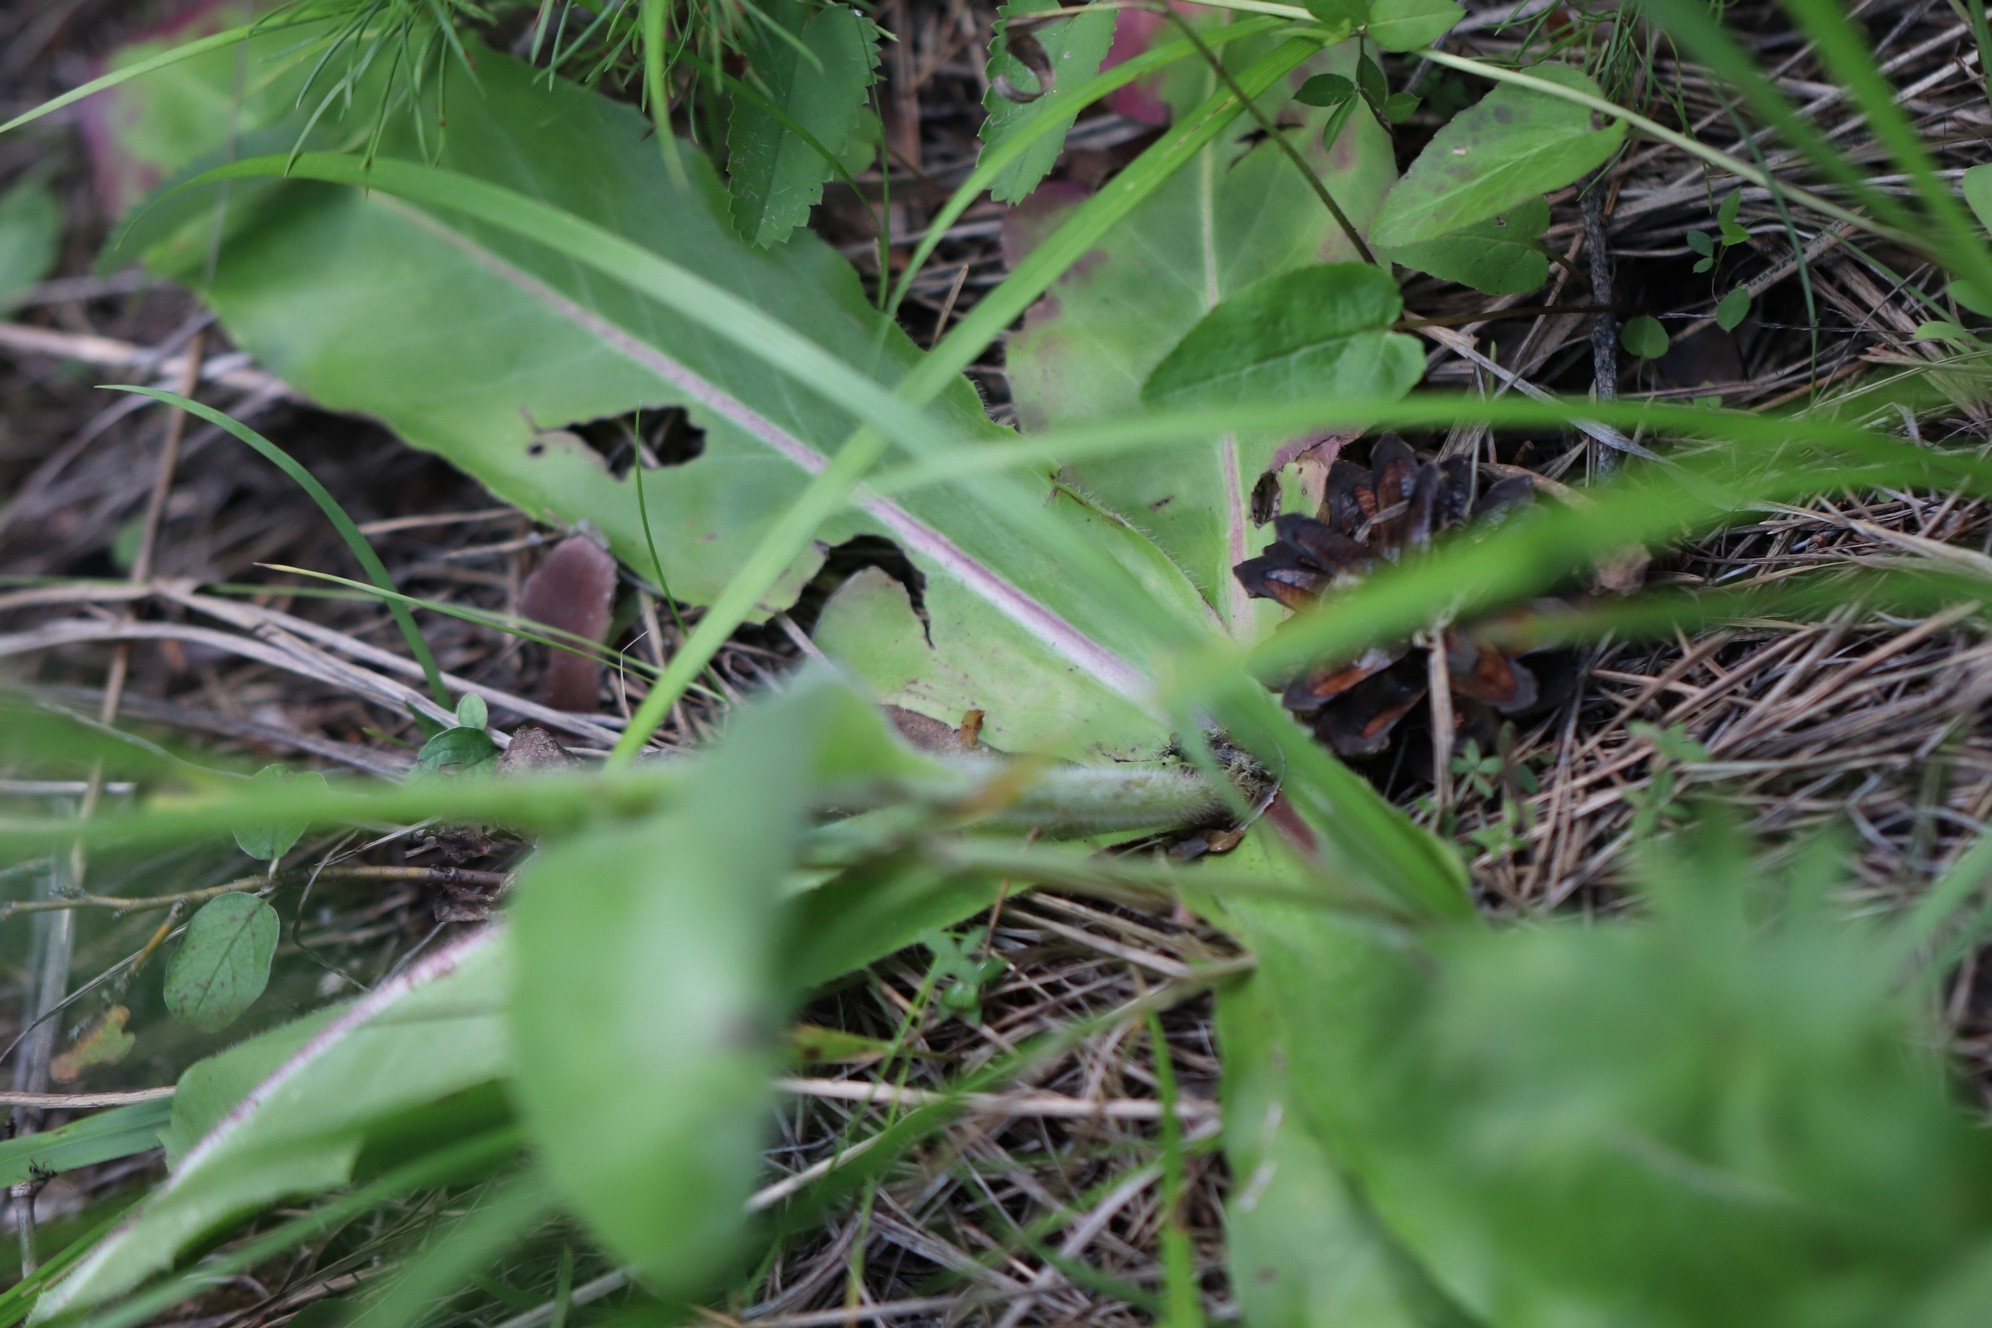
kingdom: Plantae
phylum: Tracheophyta
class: Magnoliopsida
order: Asterales
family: Asteraceae
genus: Trommsdorffia
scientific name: Trommsdorffia maculata
